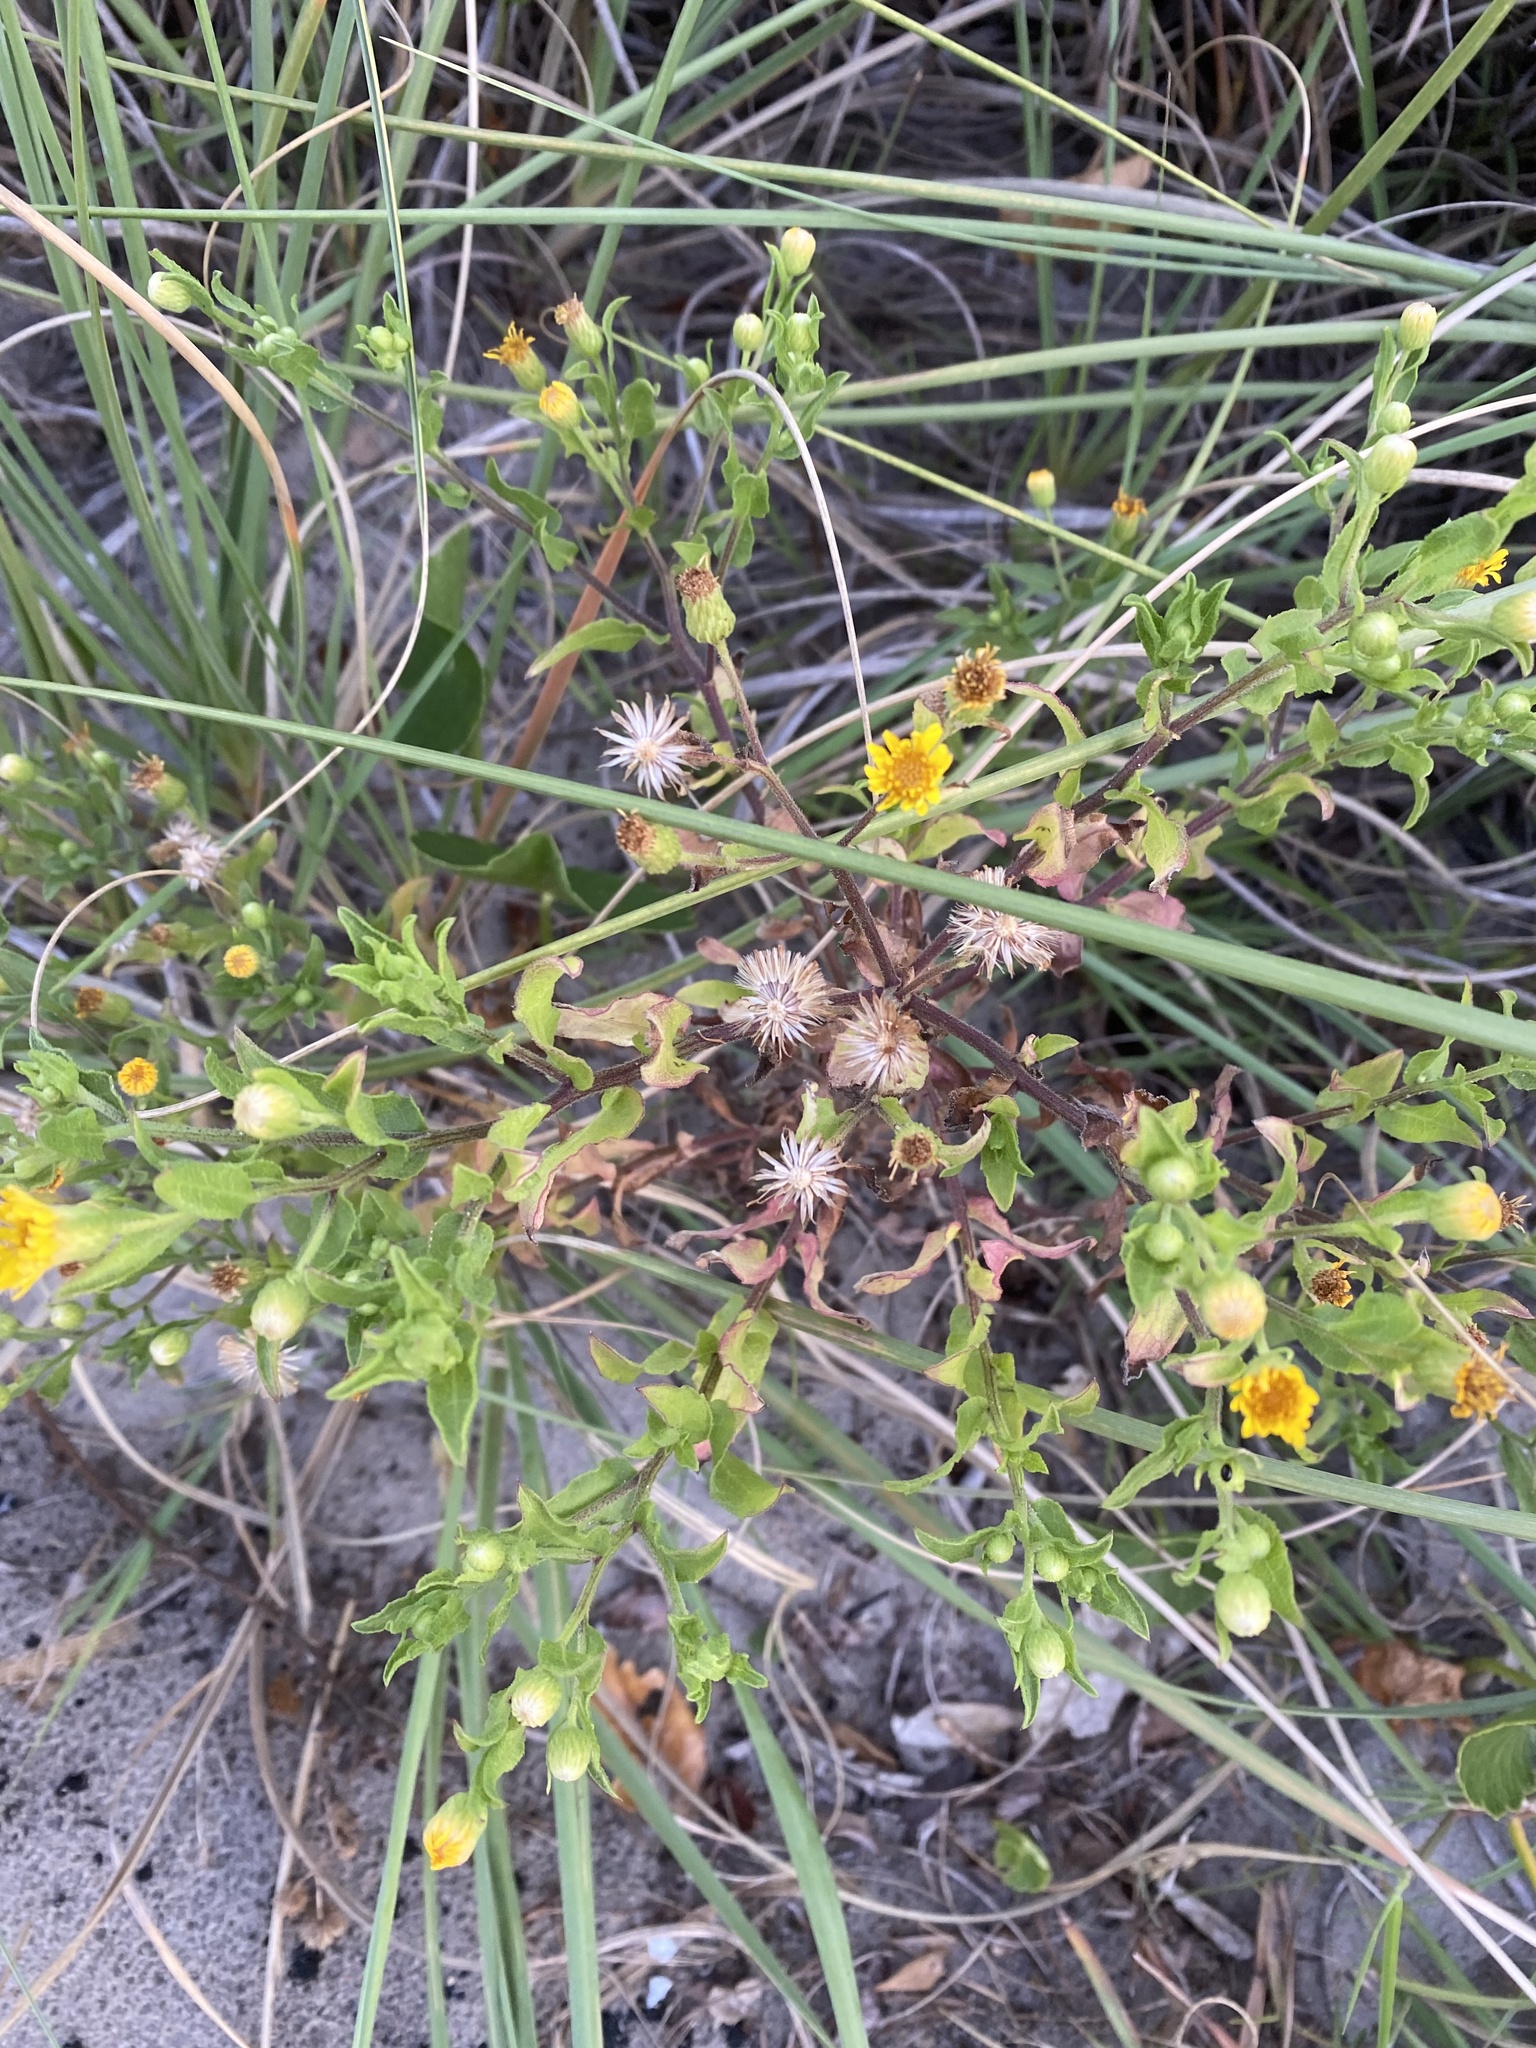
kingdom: Plantae
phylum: Tracheophyta
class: Magnoliopsida
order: Asterales
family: Asteraceae
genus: Heterotheca
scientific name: Heterotheca subaxillaris
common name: Camphorweed
